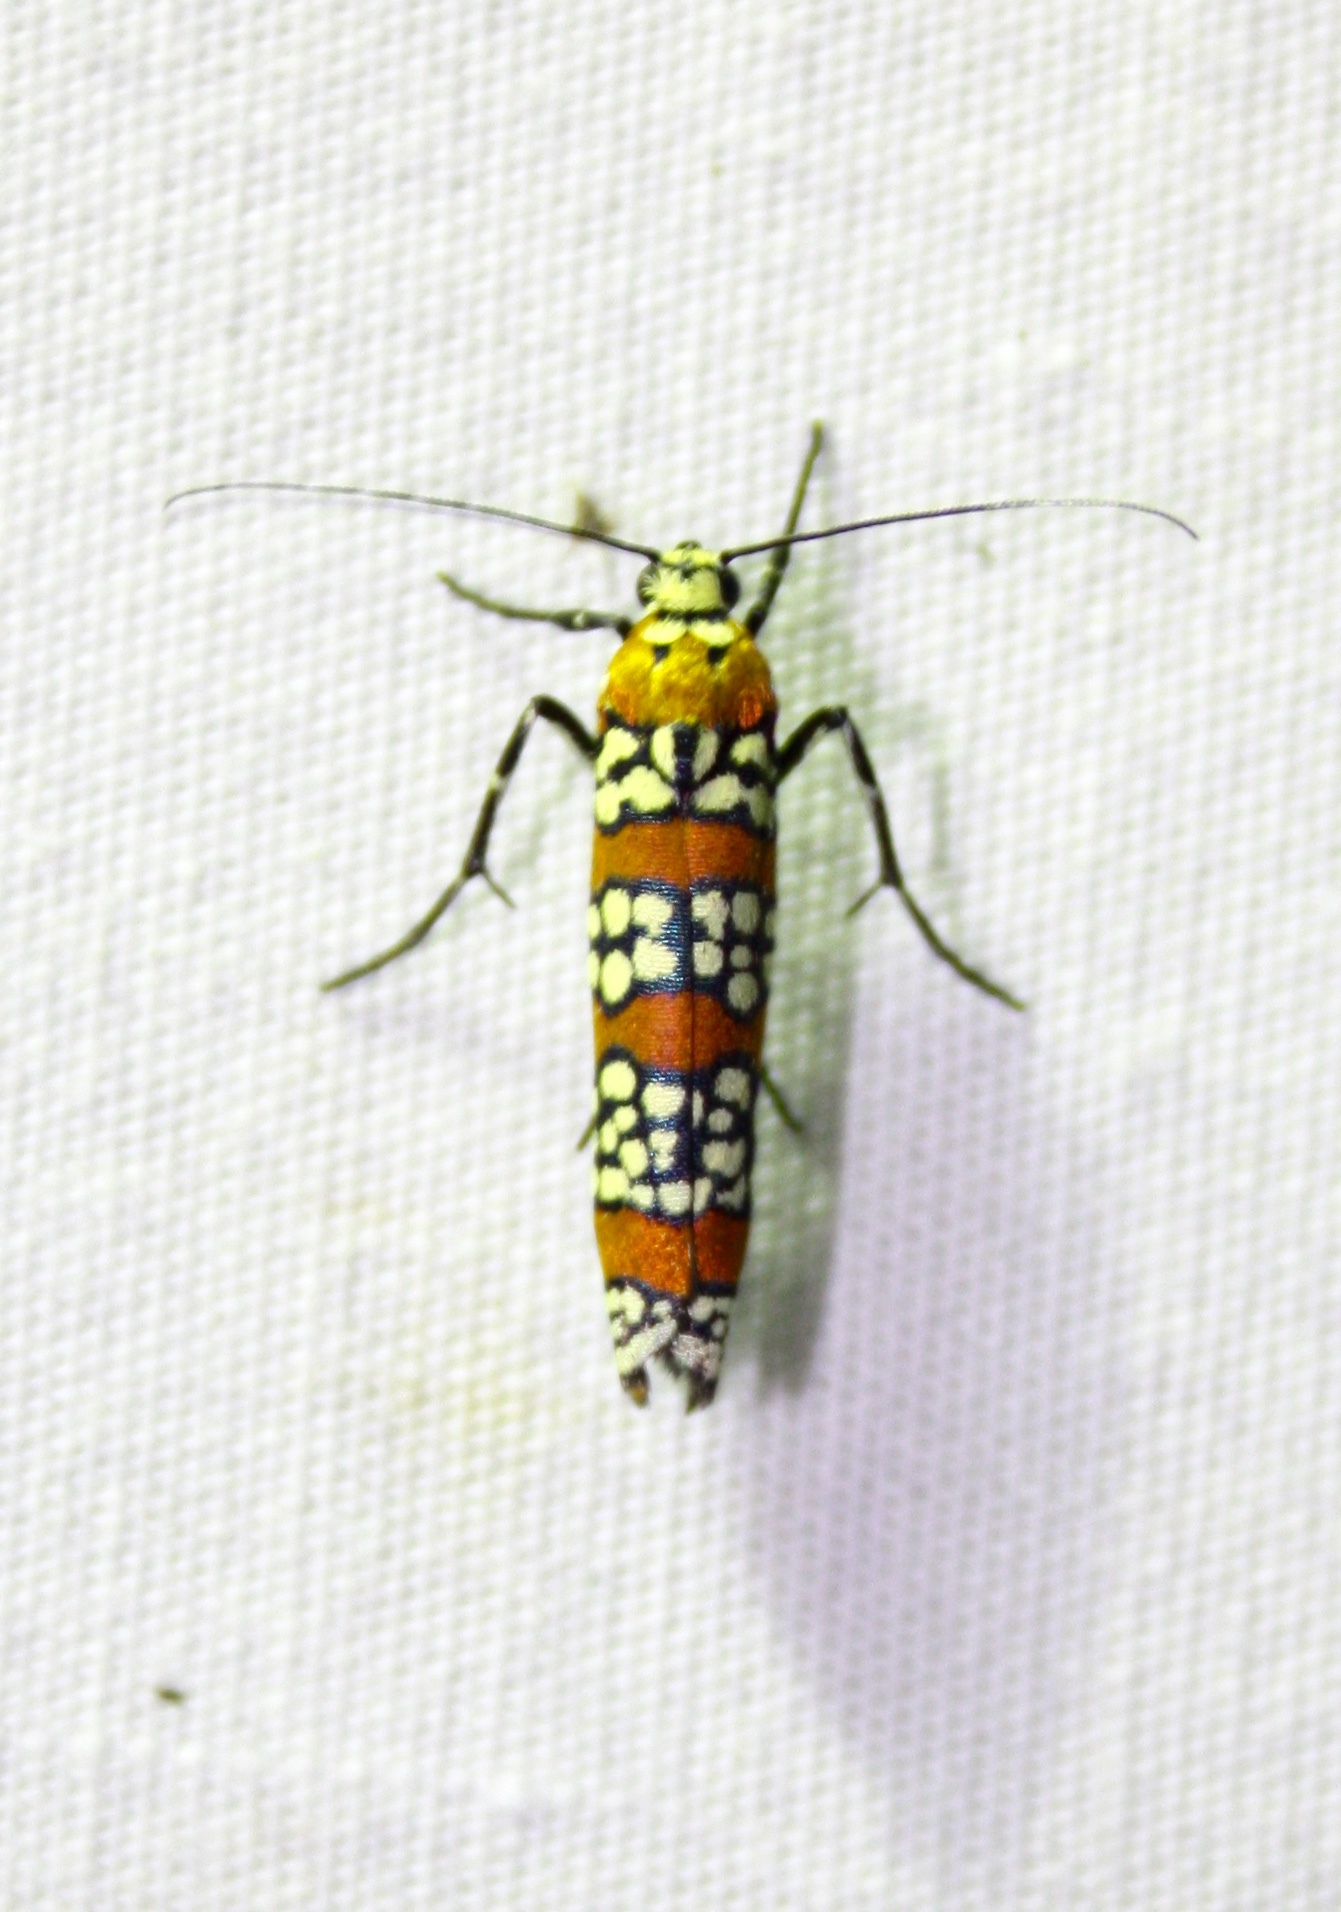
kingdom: Animalia
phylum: Arthropoda
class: Insecta
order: Lepidoptera
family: Attevidae
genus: Atteva
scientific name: Atteva punctella
